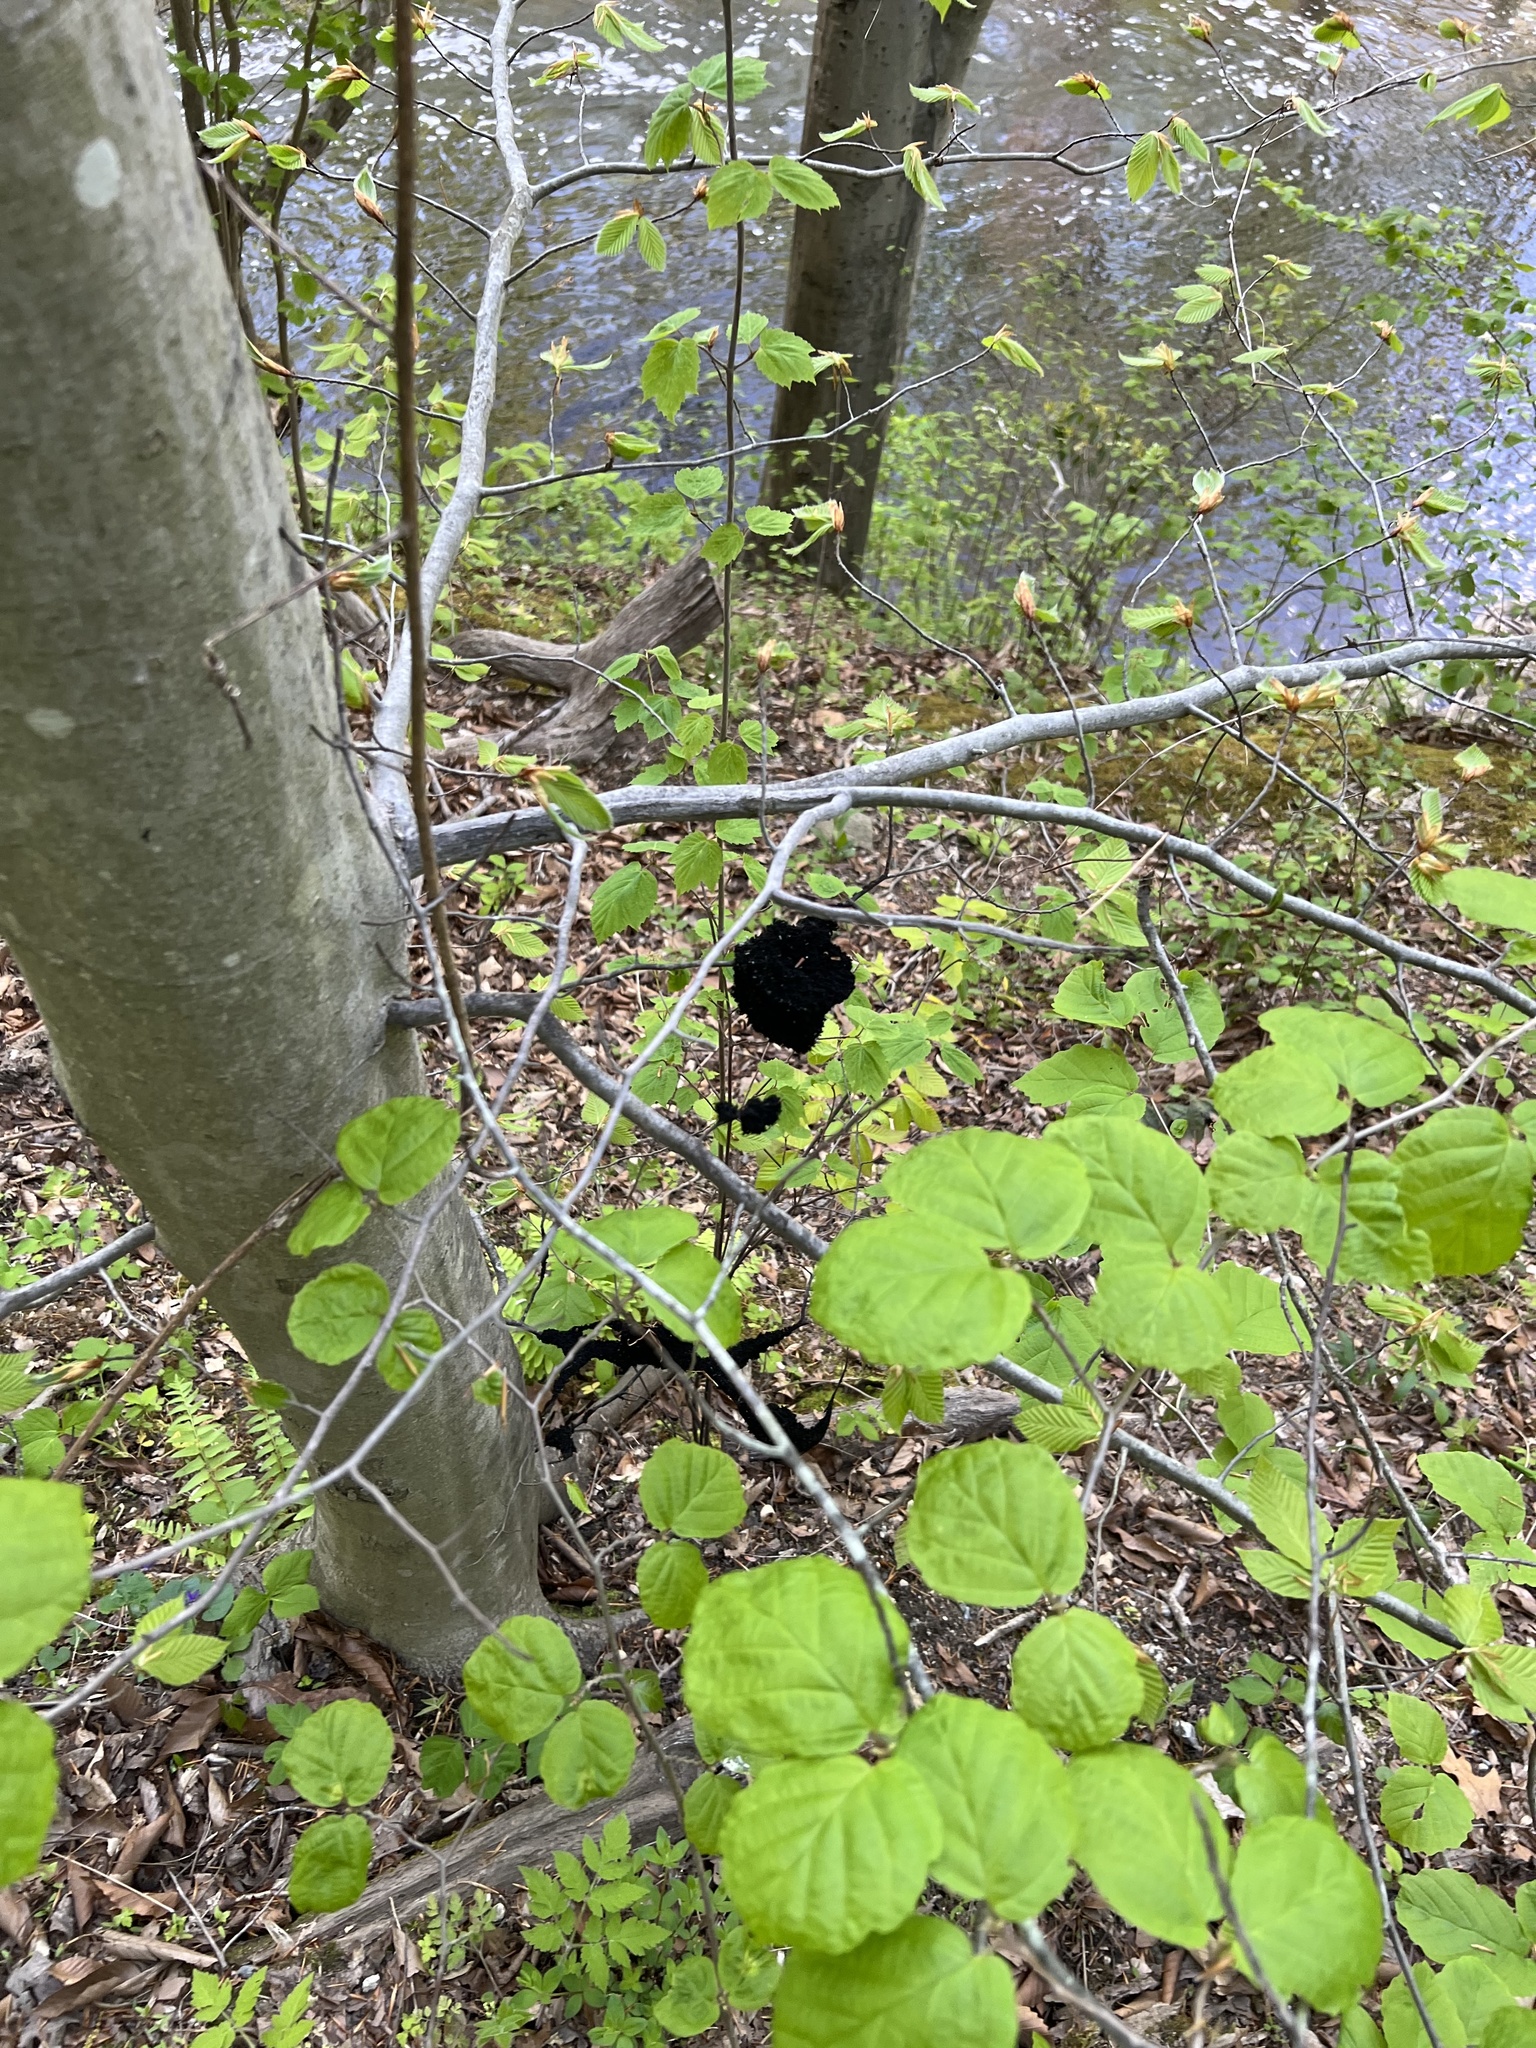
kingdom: Fungi
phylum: Ascomycota
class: Dothideomycetes
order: Capnodiales
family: Capnodiaceae
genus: Scorias
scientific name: Scorias spongiosa
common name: Black sooty mold
